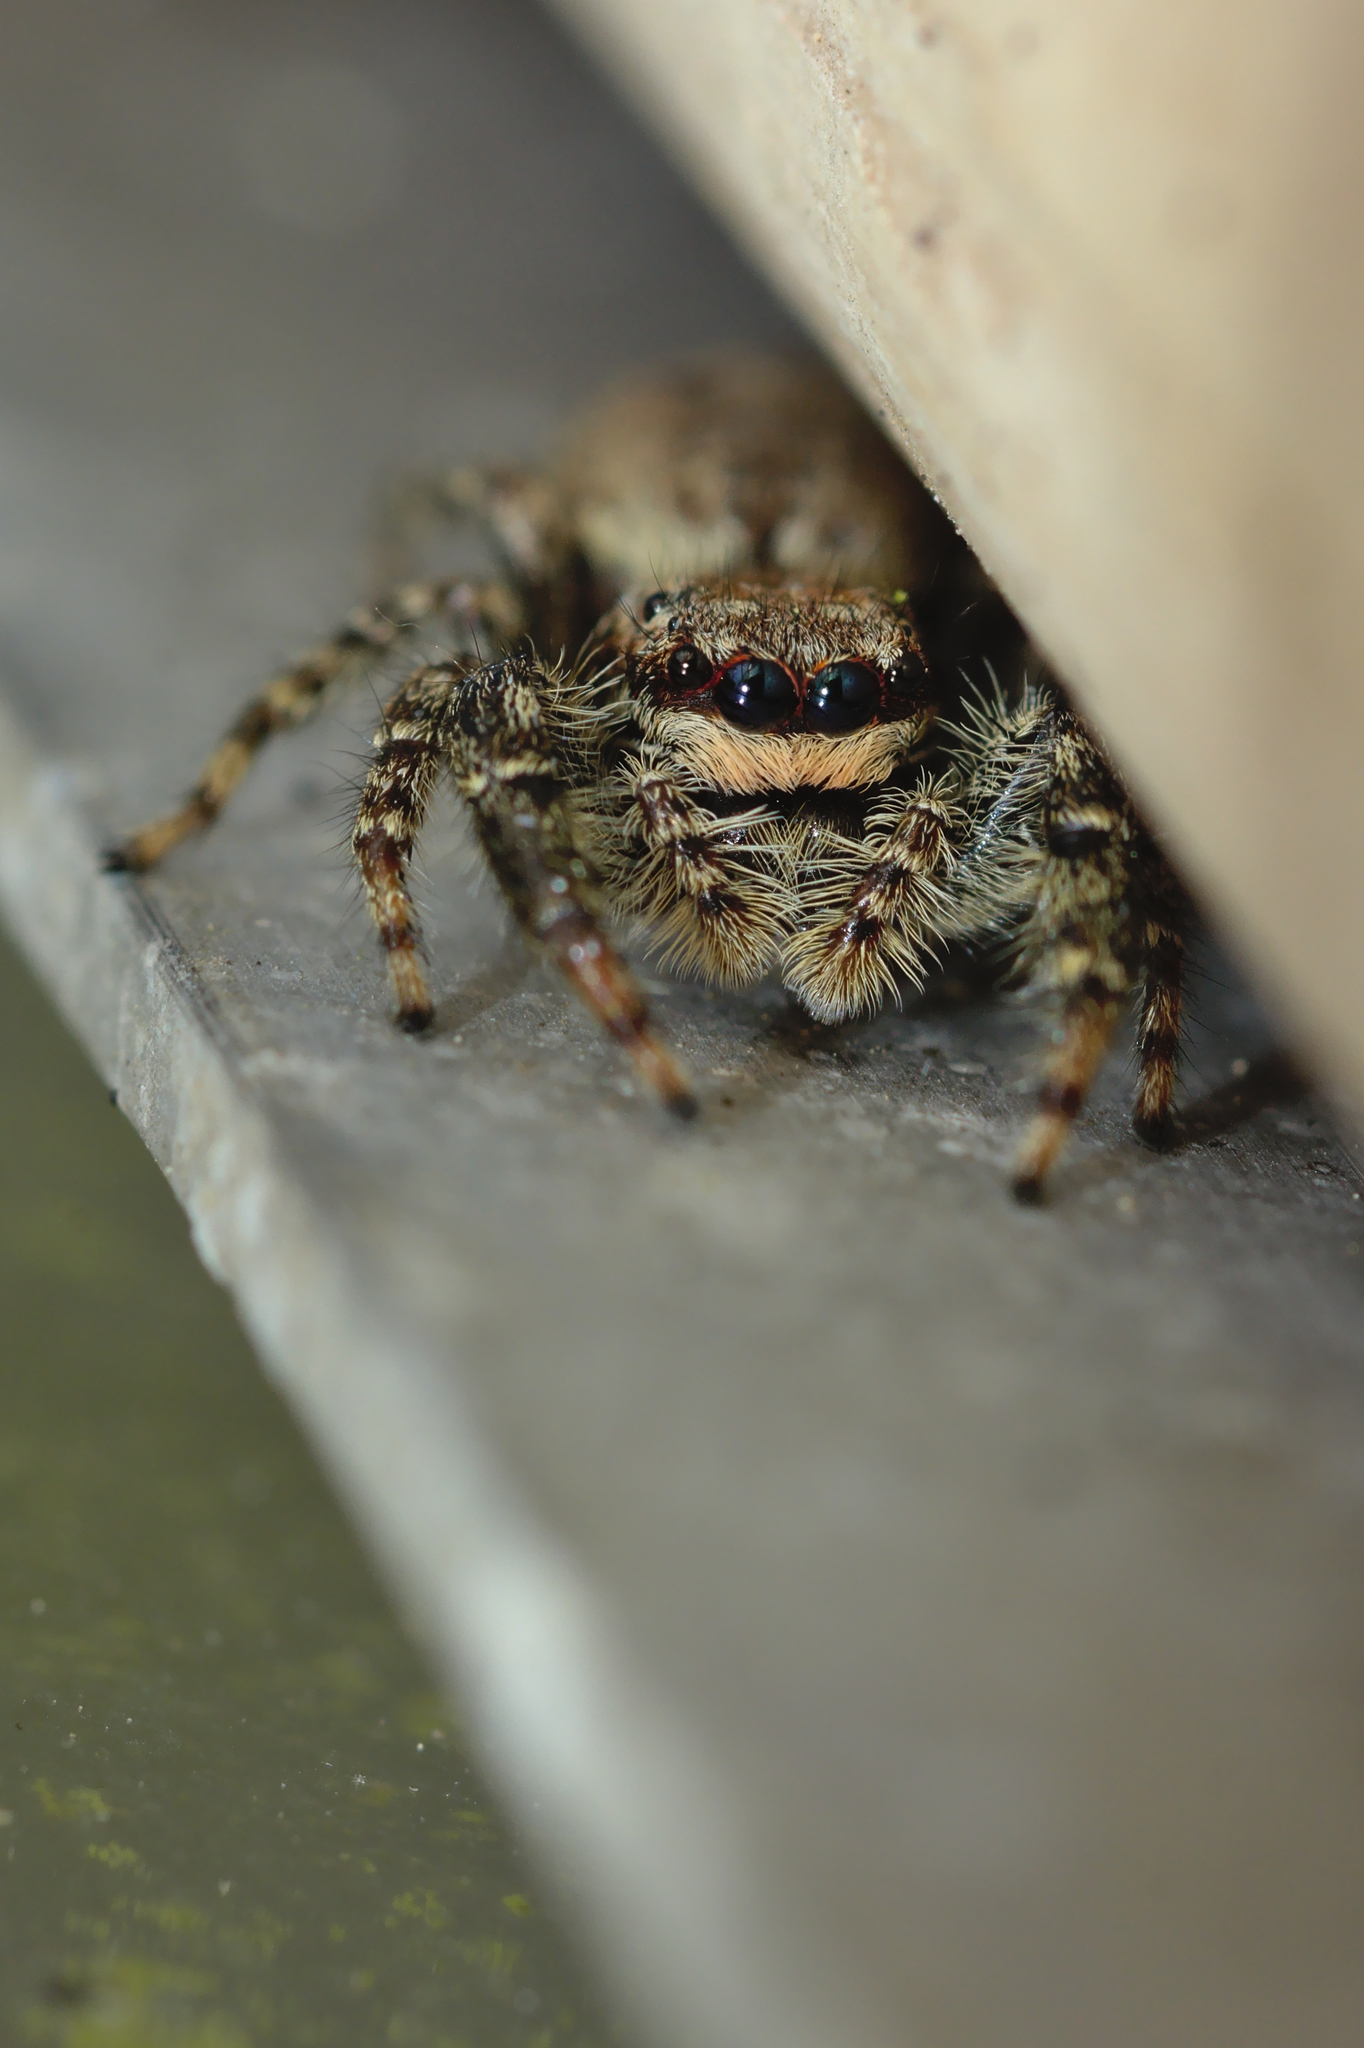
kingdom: Animalia
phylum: Arthropoda
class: Arachnida
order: Araneae
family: Salticidae
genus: Marpissa
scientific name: Marpissa muscosa
